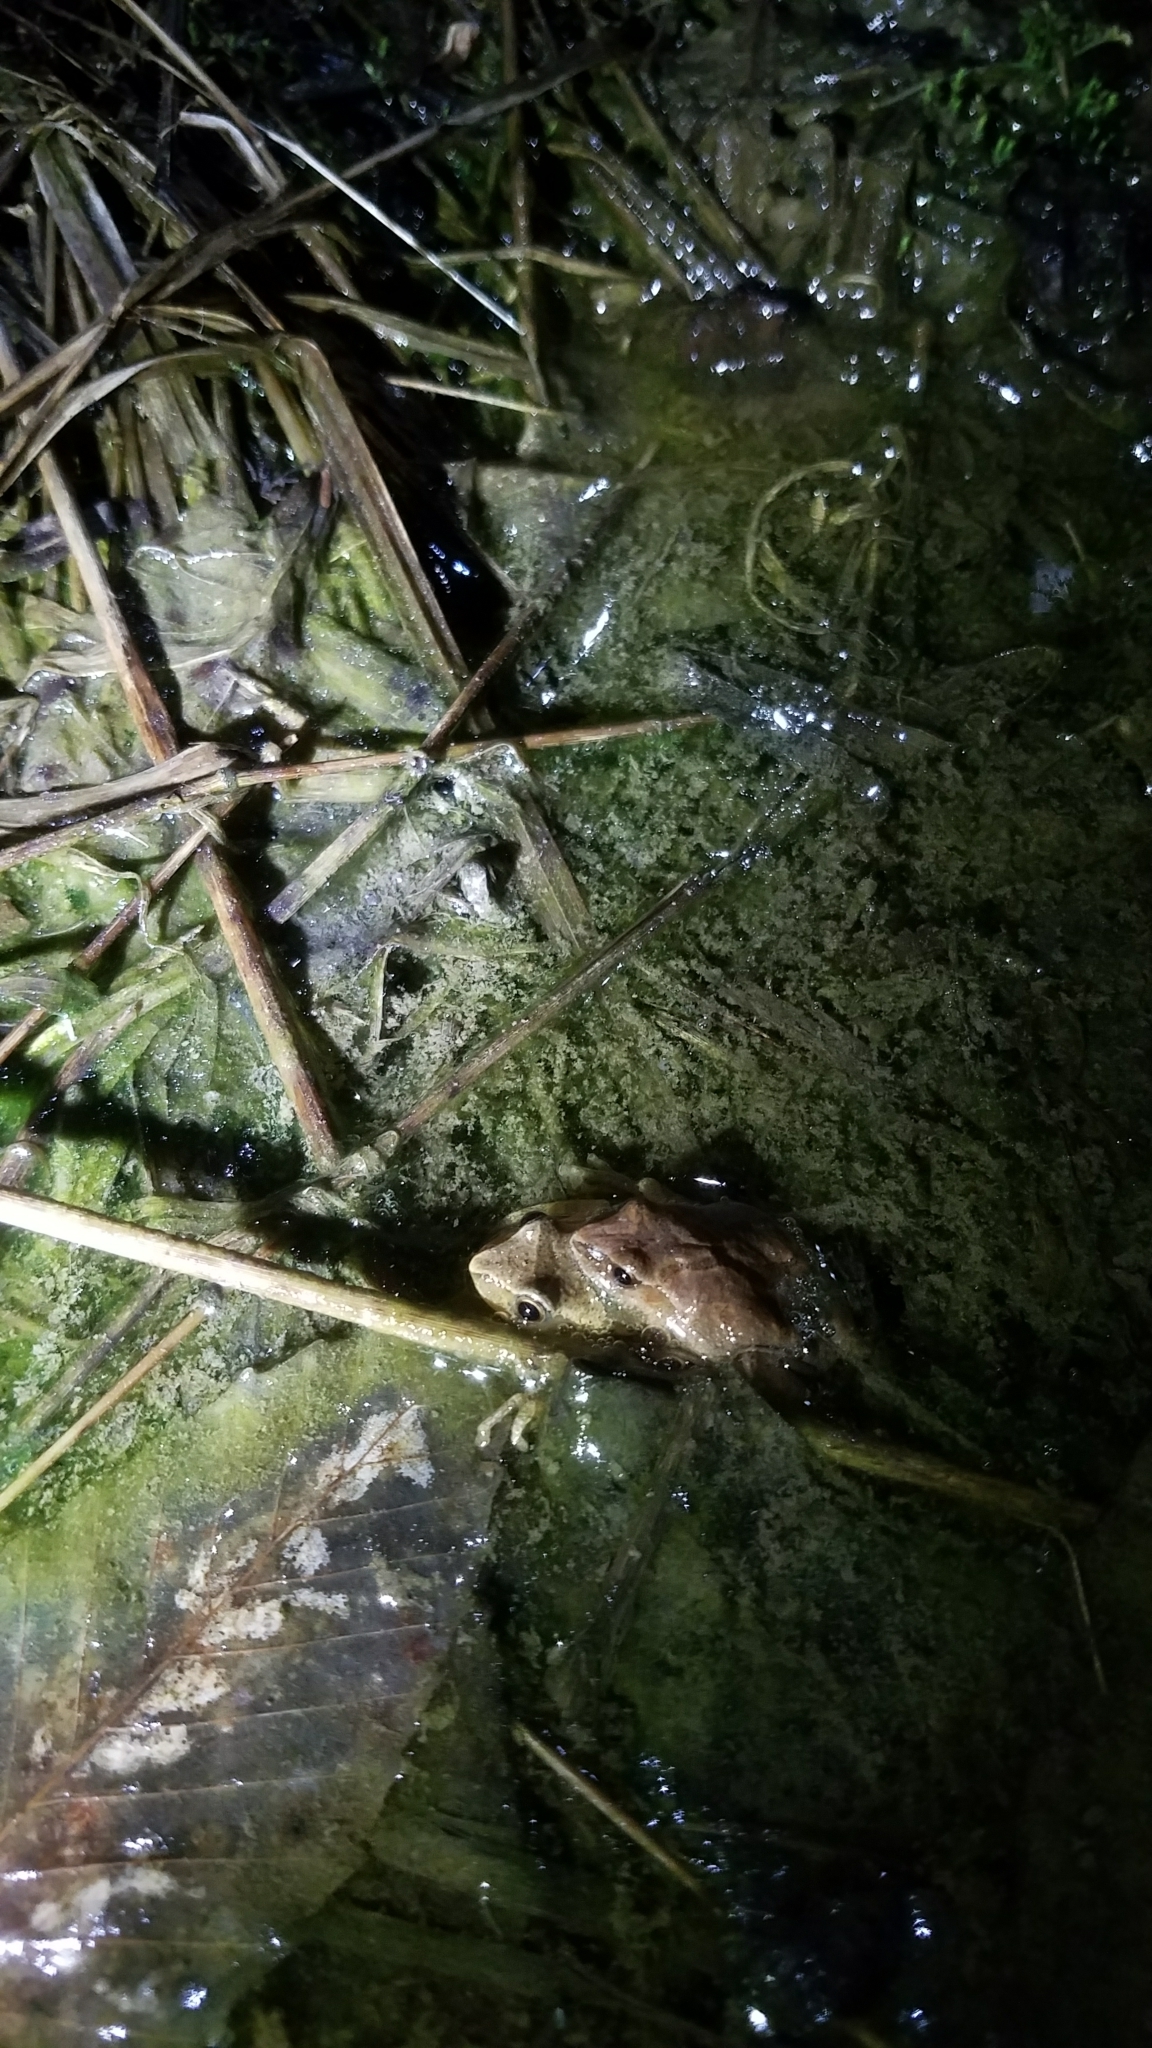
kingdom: Animalia
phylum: Chordata
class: Amphibia
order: Anura
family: Hylidae
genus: Pseudacris
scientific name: Pseudacris crucifer
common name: Spring peeper
